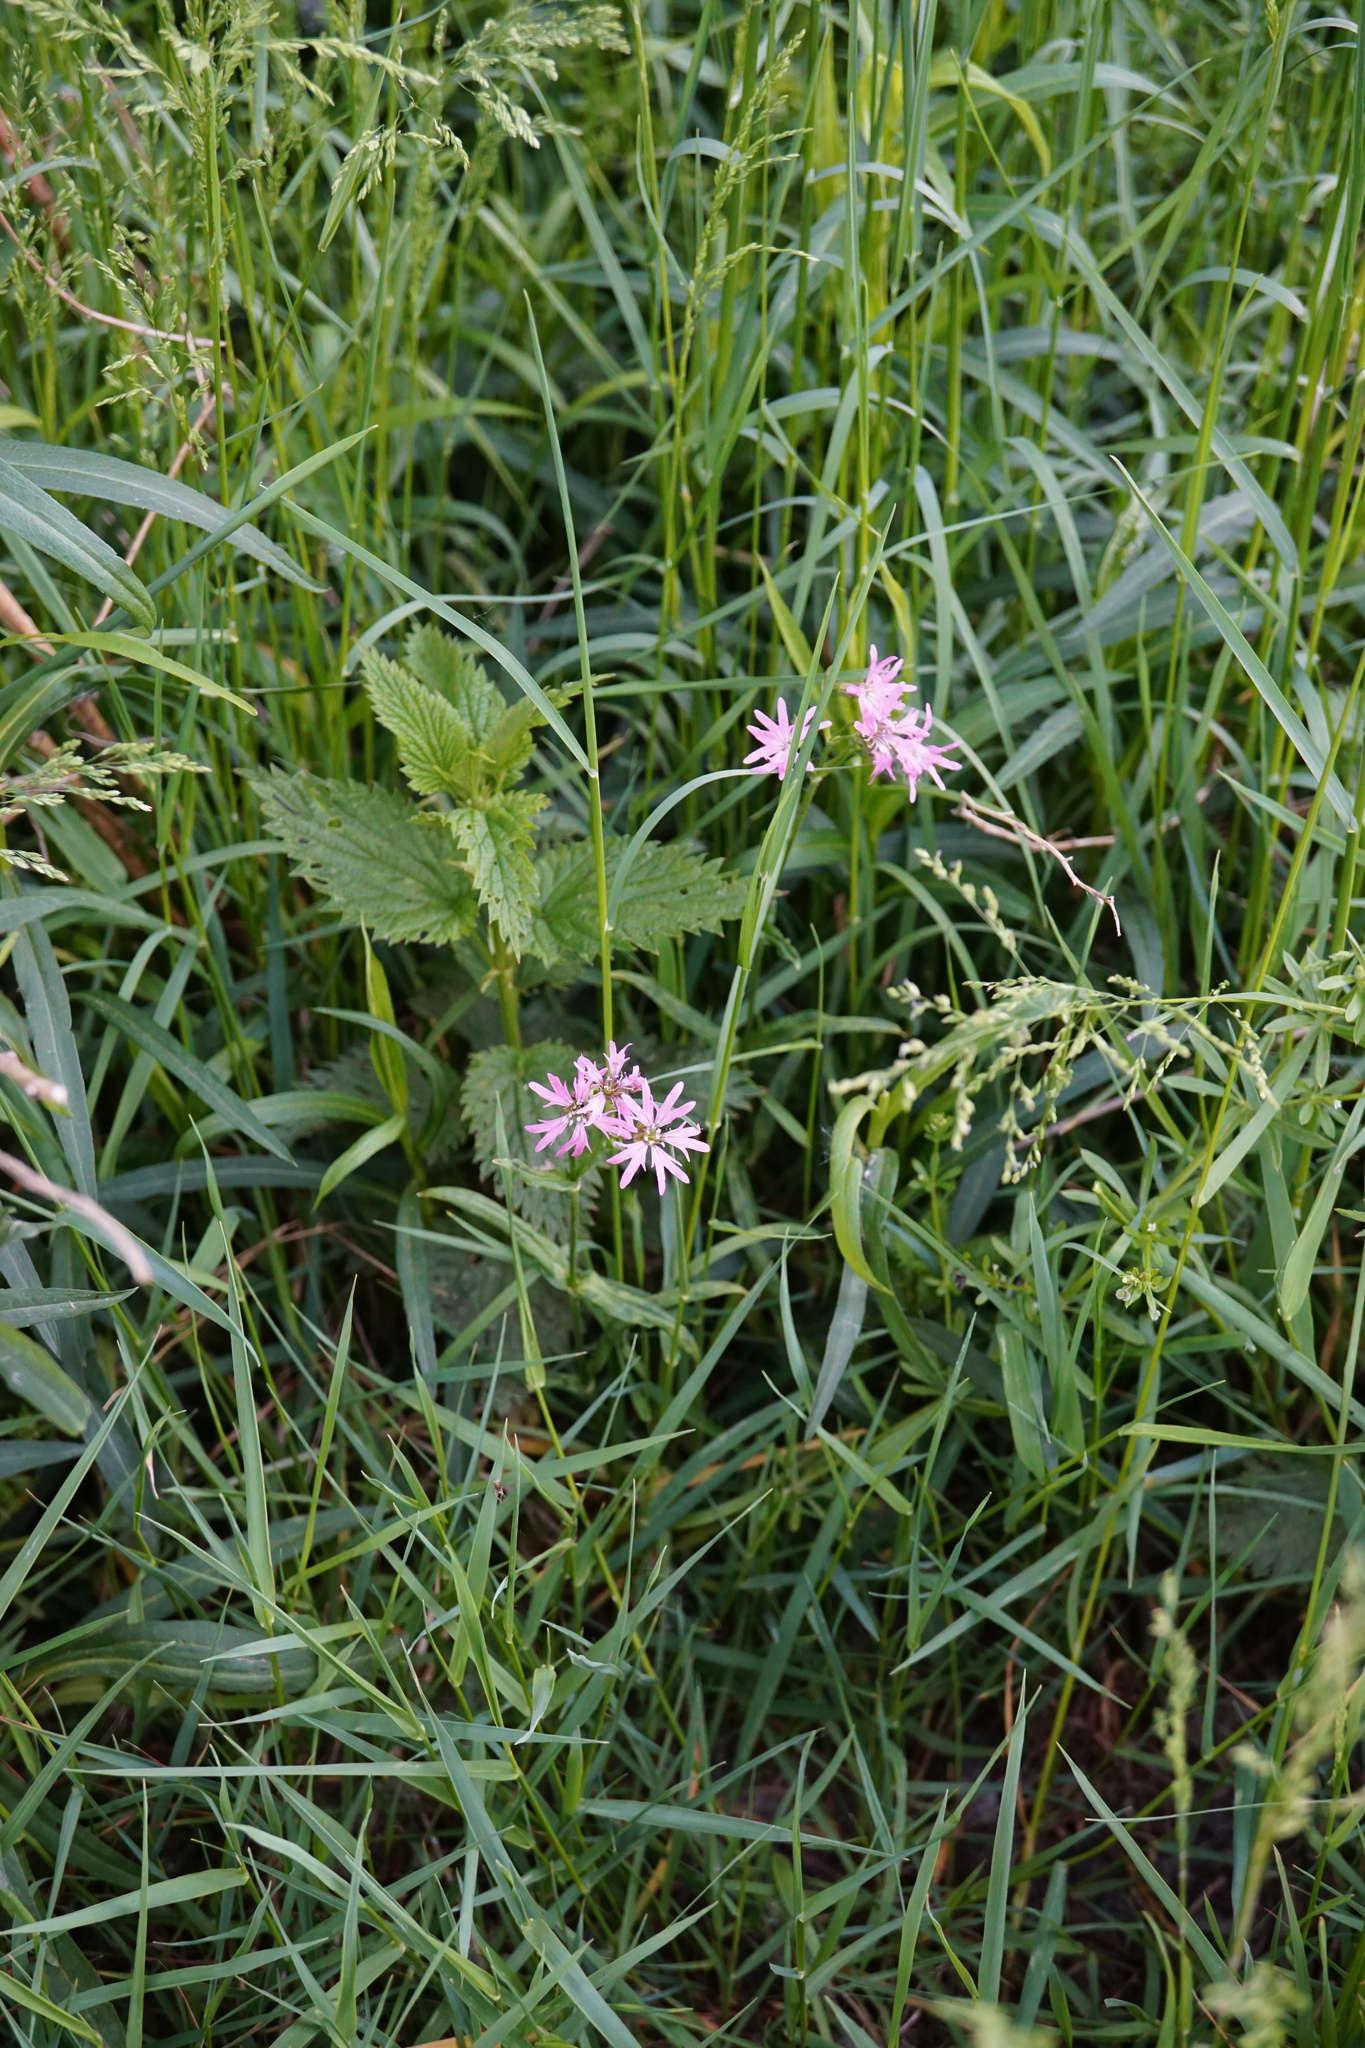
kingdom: Plantae
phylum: Tracheophyta
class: Magnoliopsida
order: Caryophyllales
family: Caryophyllaceae
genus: Silene
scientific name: Silene flos-cuculi
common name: Ragged-robin
